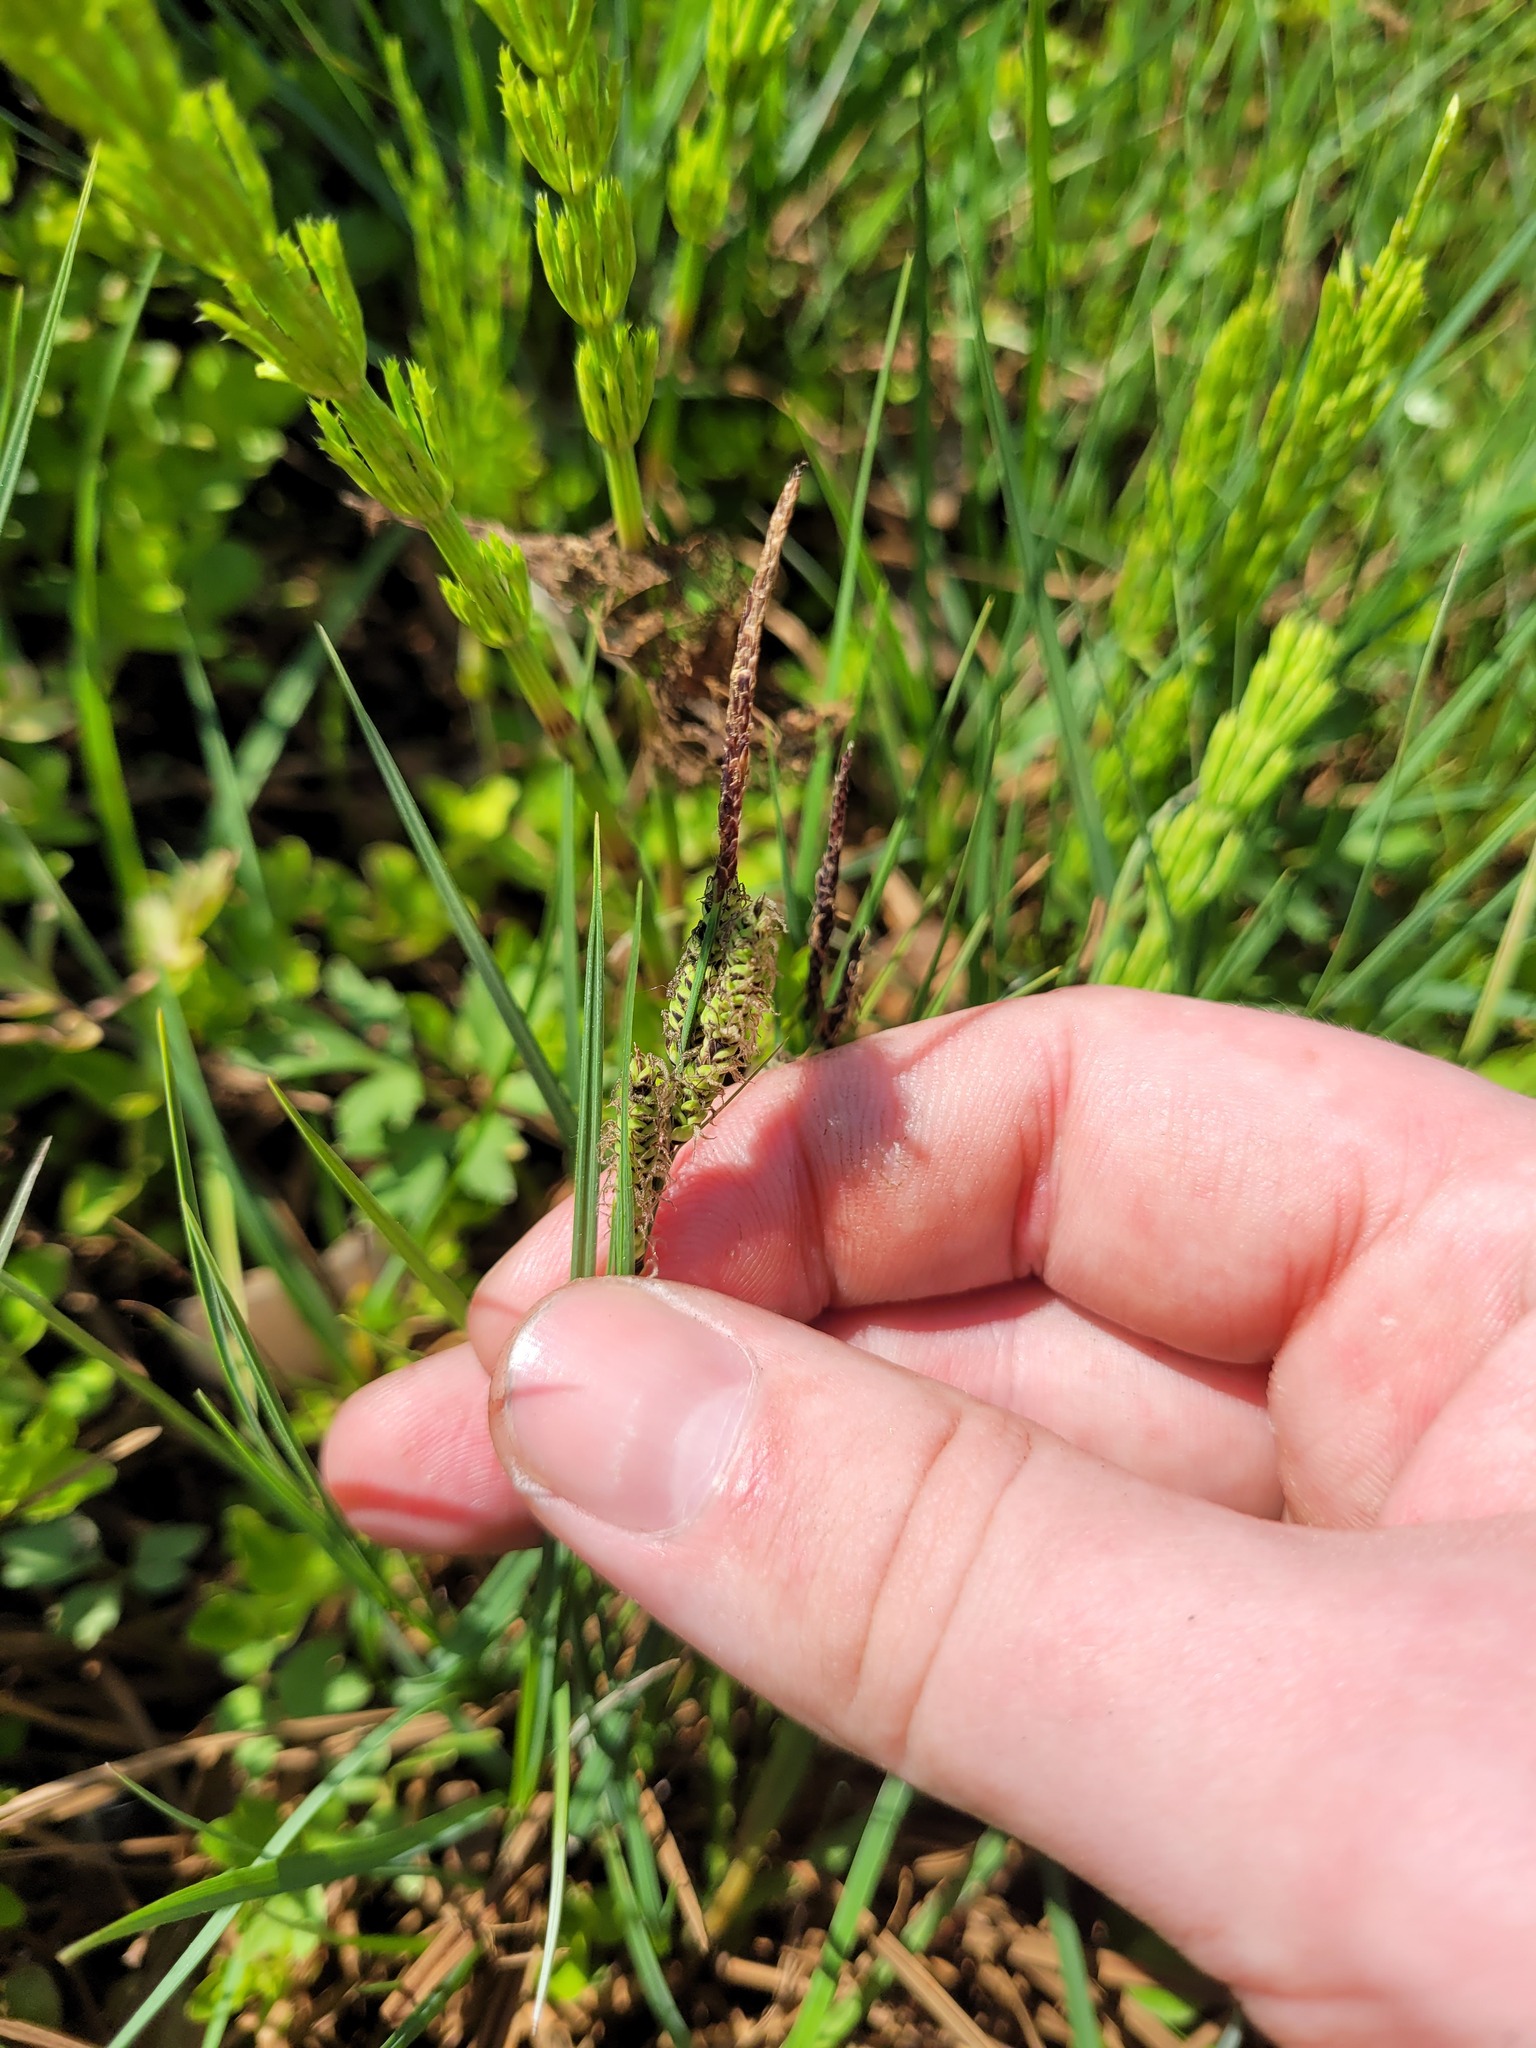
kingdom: Plantae
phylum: Tracheophyta
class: Liliopsida
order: Poales
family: Cyperaceae
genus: Carex
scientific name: Carex nigra
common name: Common sedge
